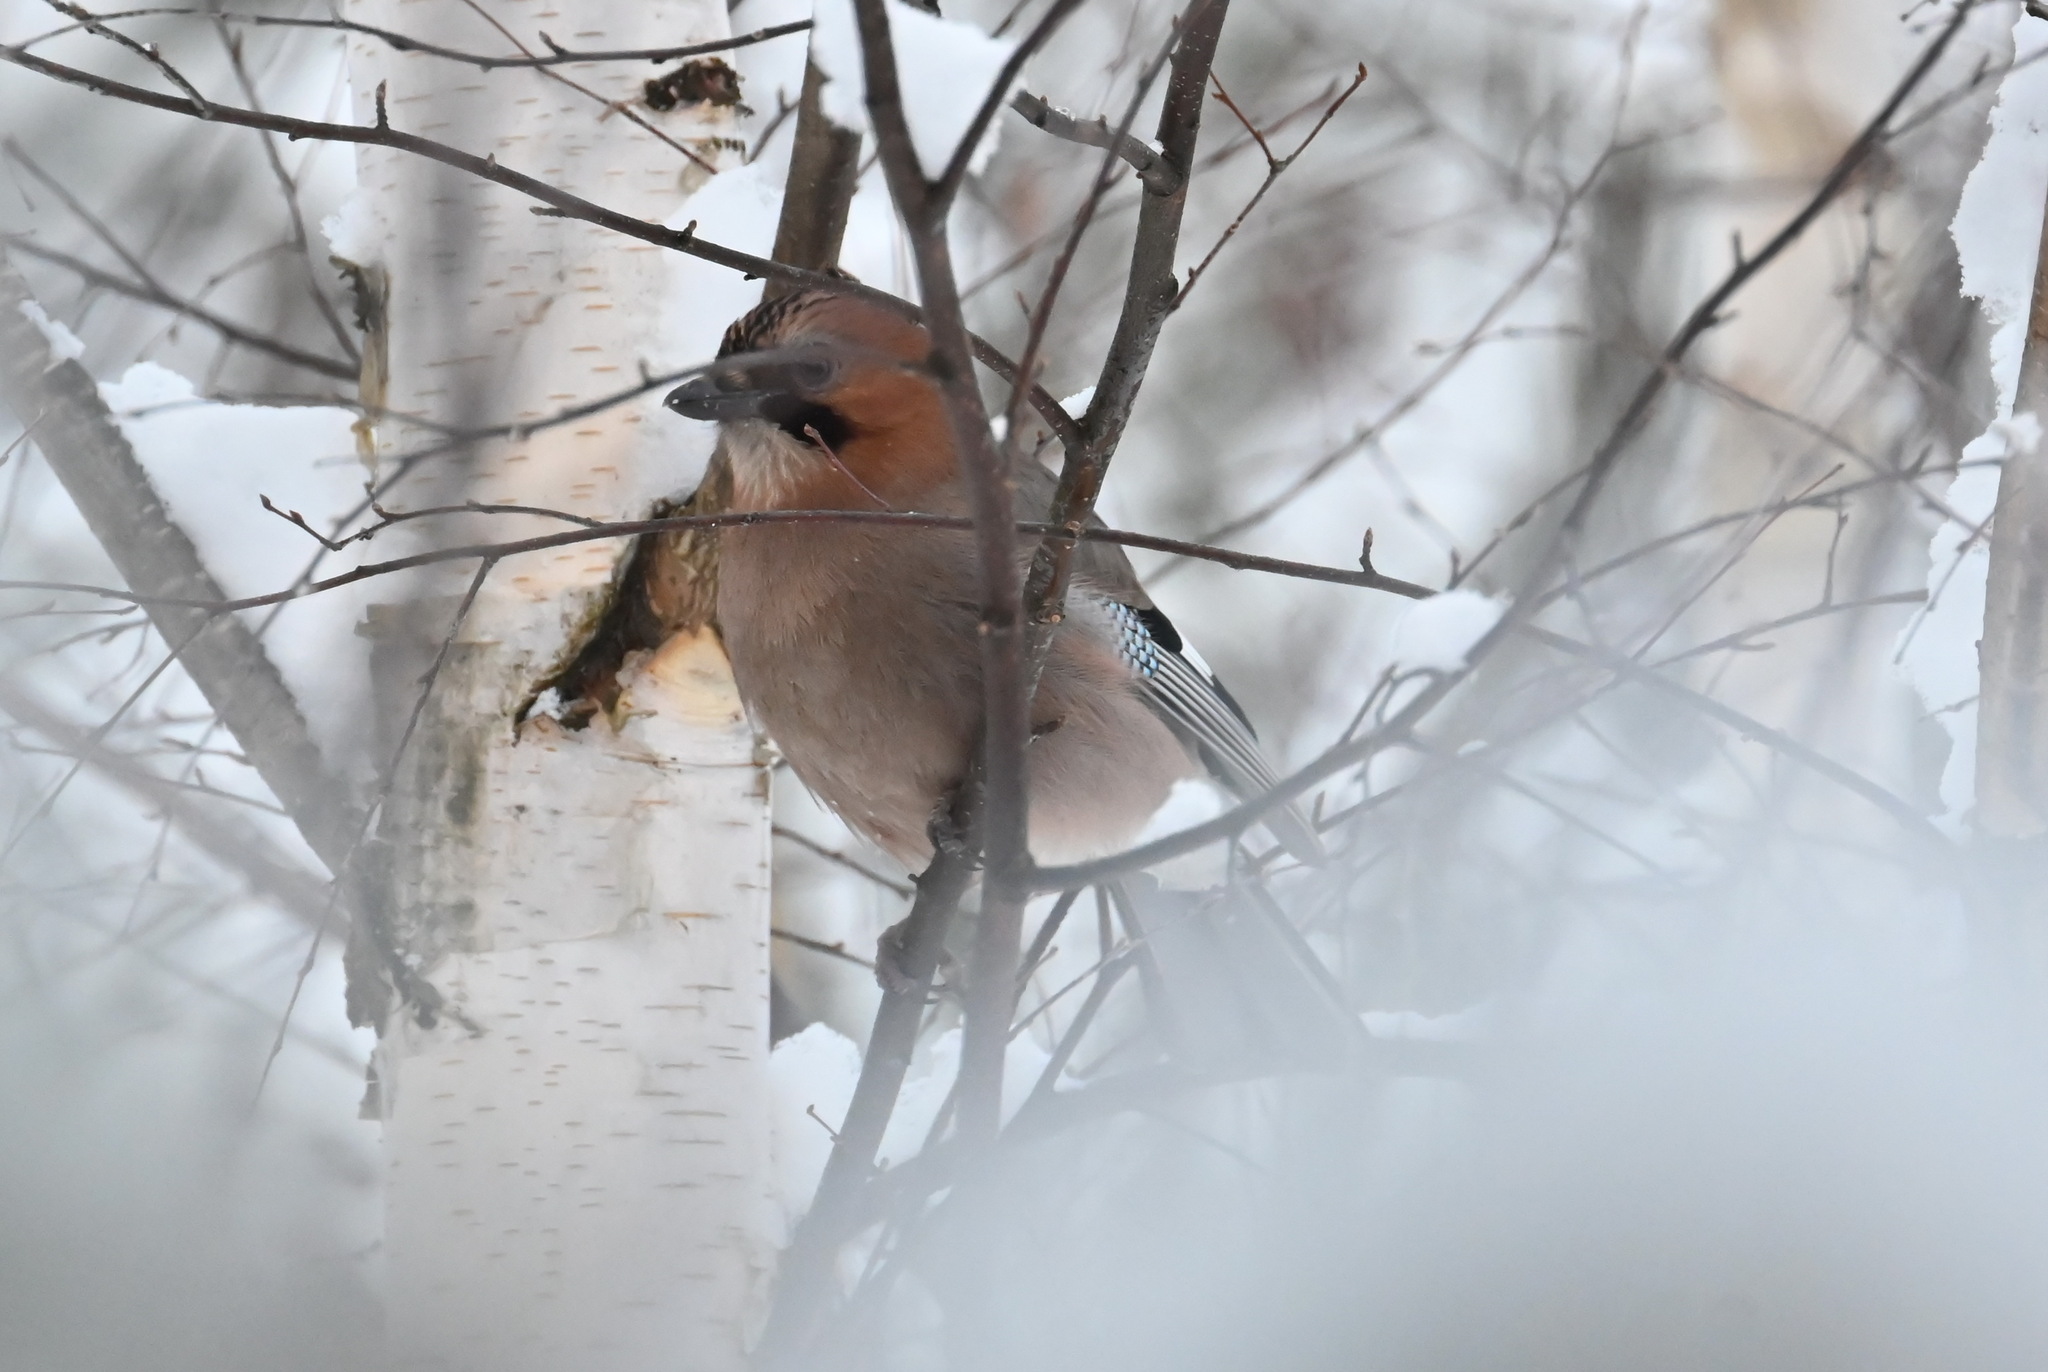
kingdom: Animalia
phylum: Chordata
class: Aves
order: Passeriformes
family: Corvidae
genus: Garrulus
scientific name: Garrulus glandarius
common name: Eurasian jay
